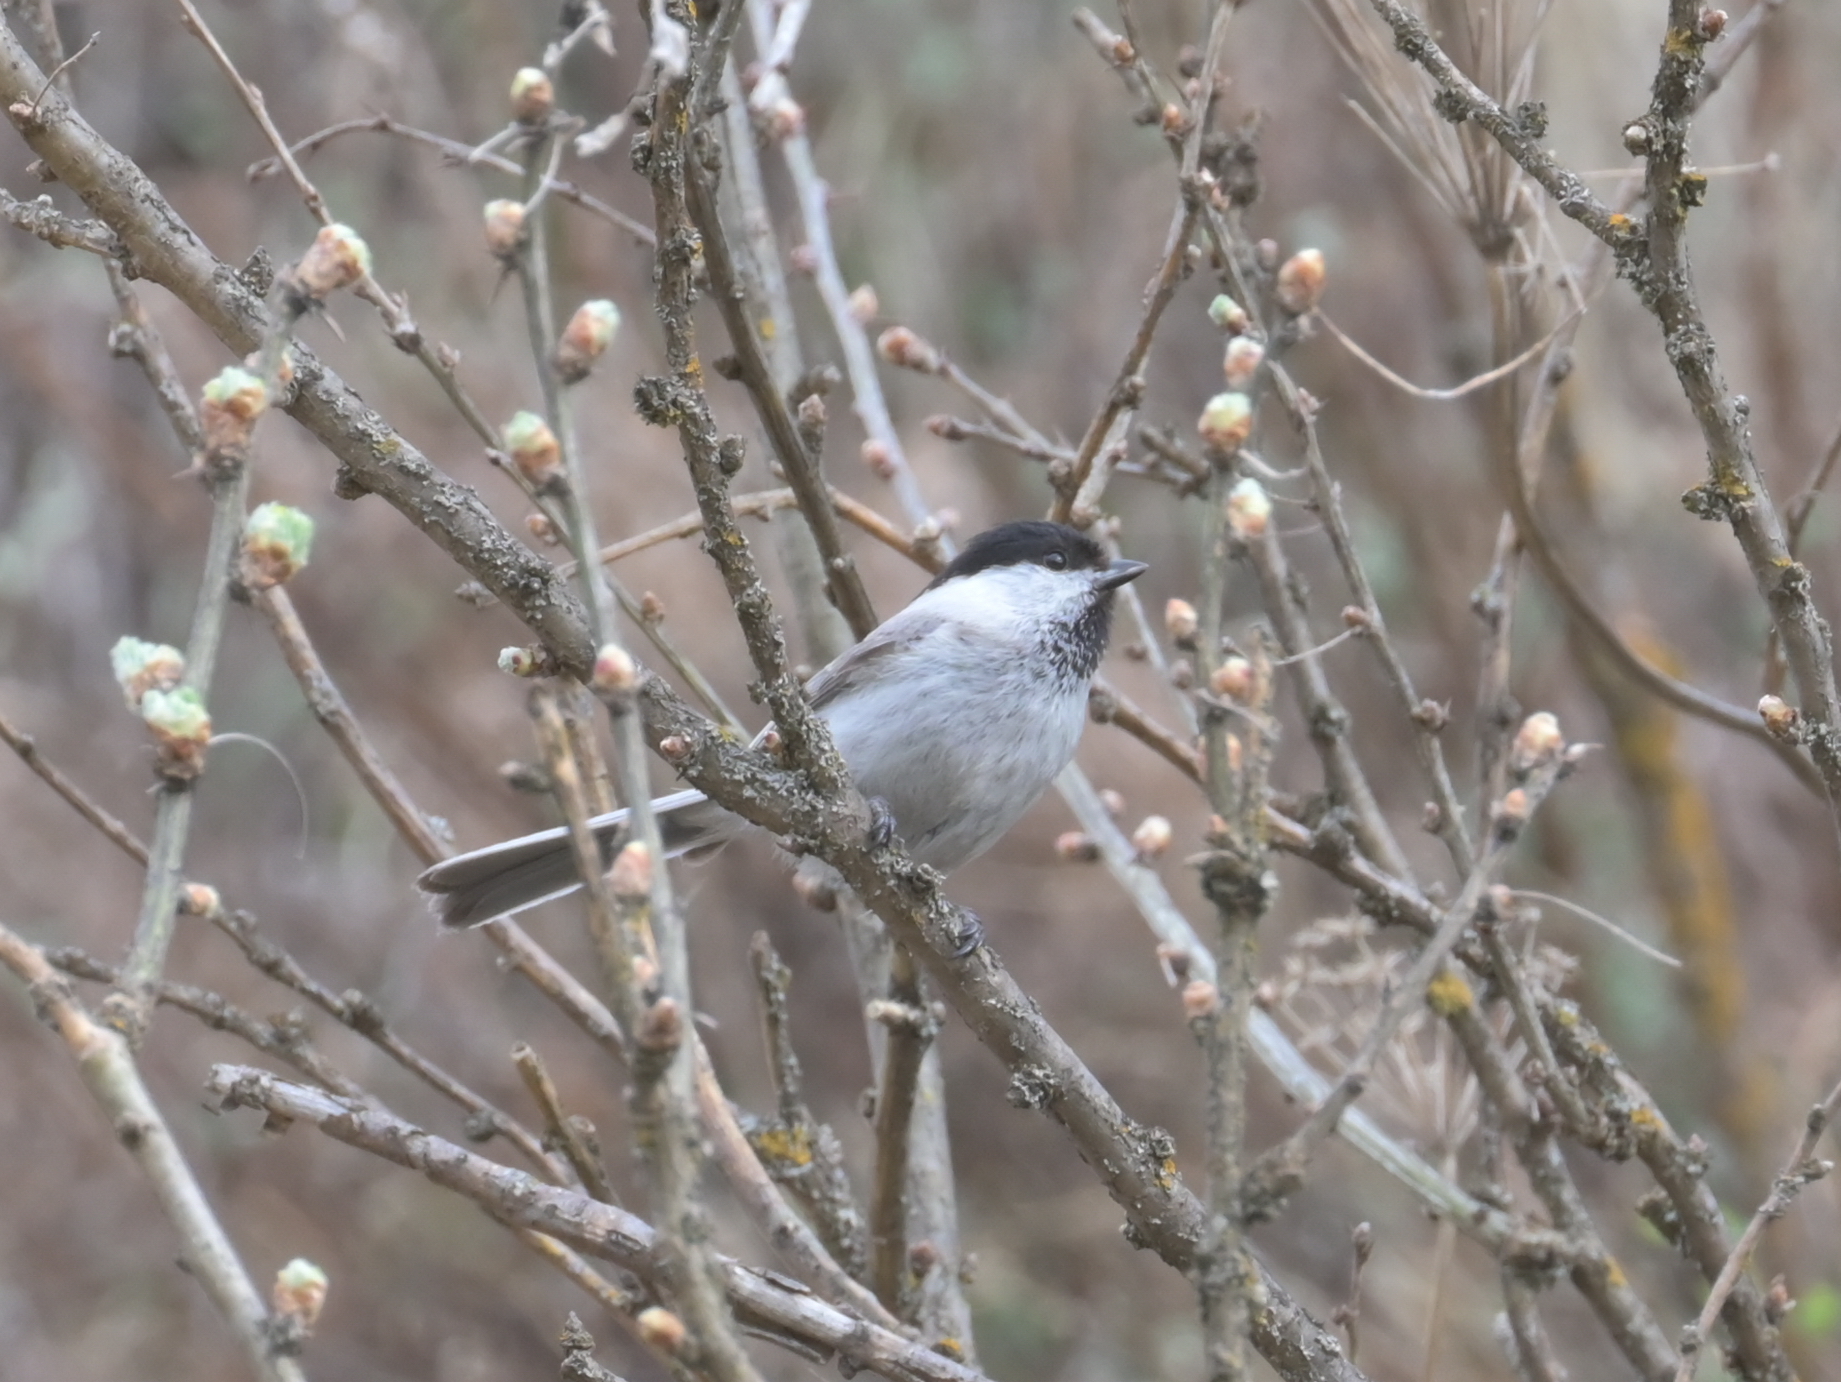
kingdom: Animalia
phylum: Chordata
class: Aves
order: Passeriformes
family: Paridae
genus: Poecile
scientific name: Poecile palustris
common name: Marsh tit
